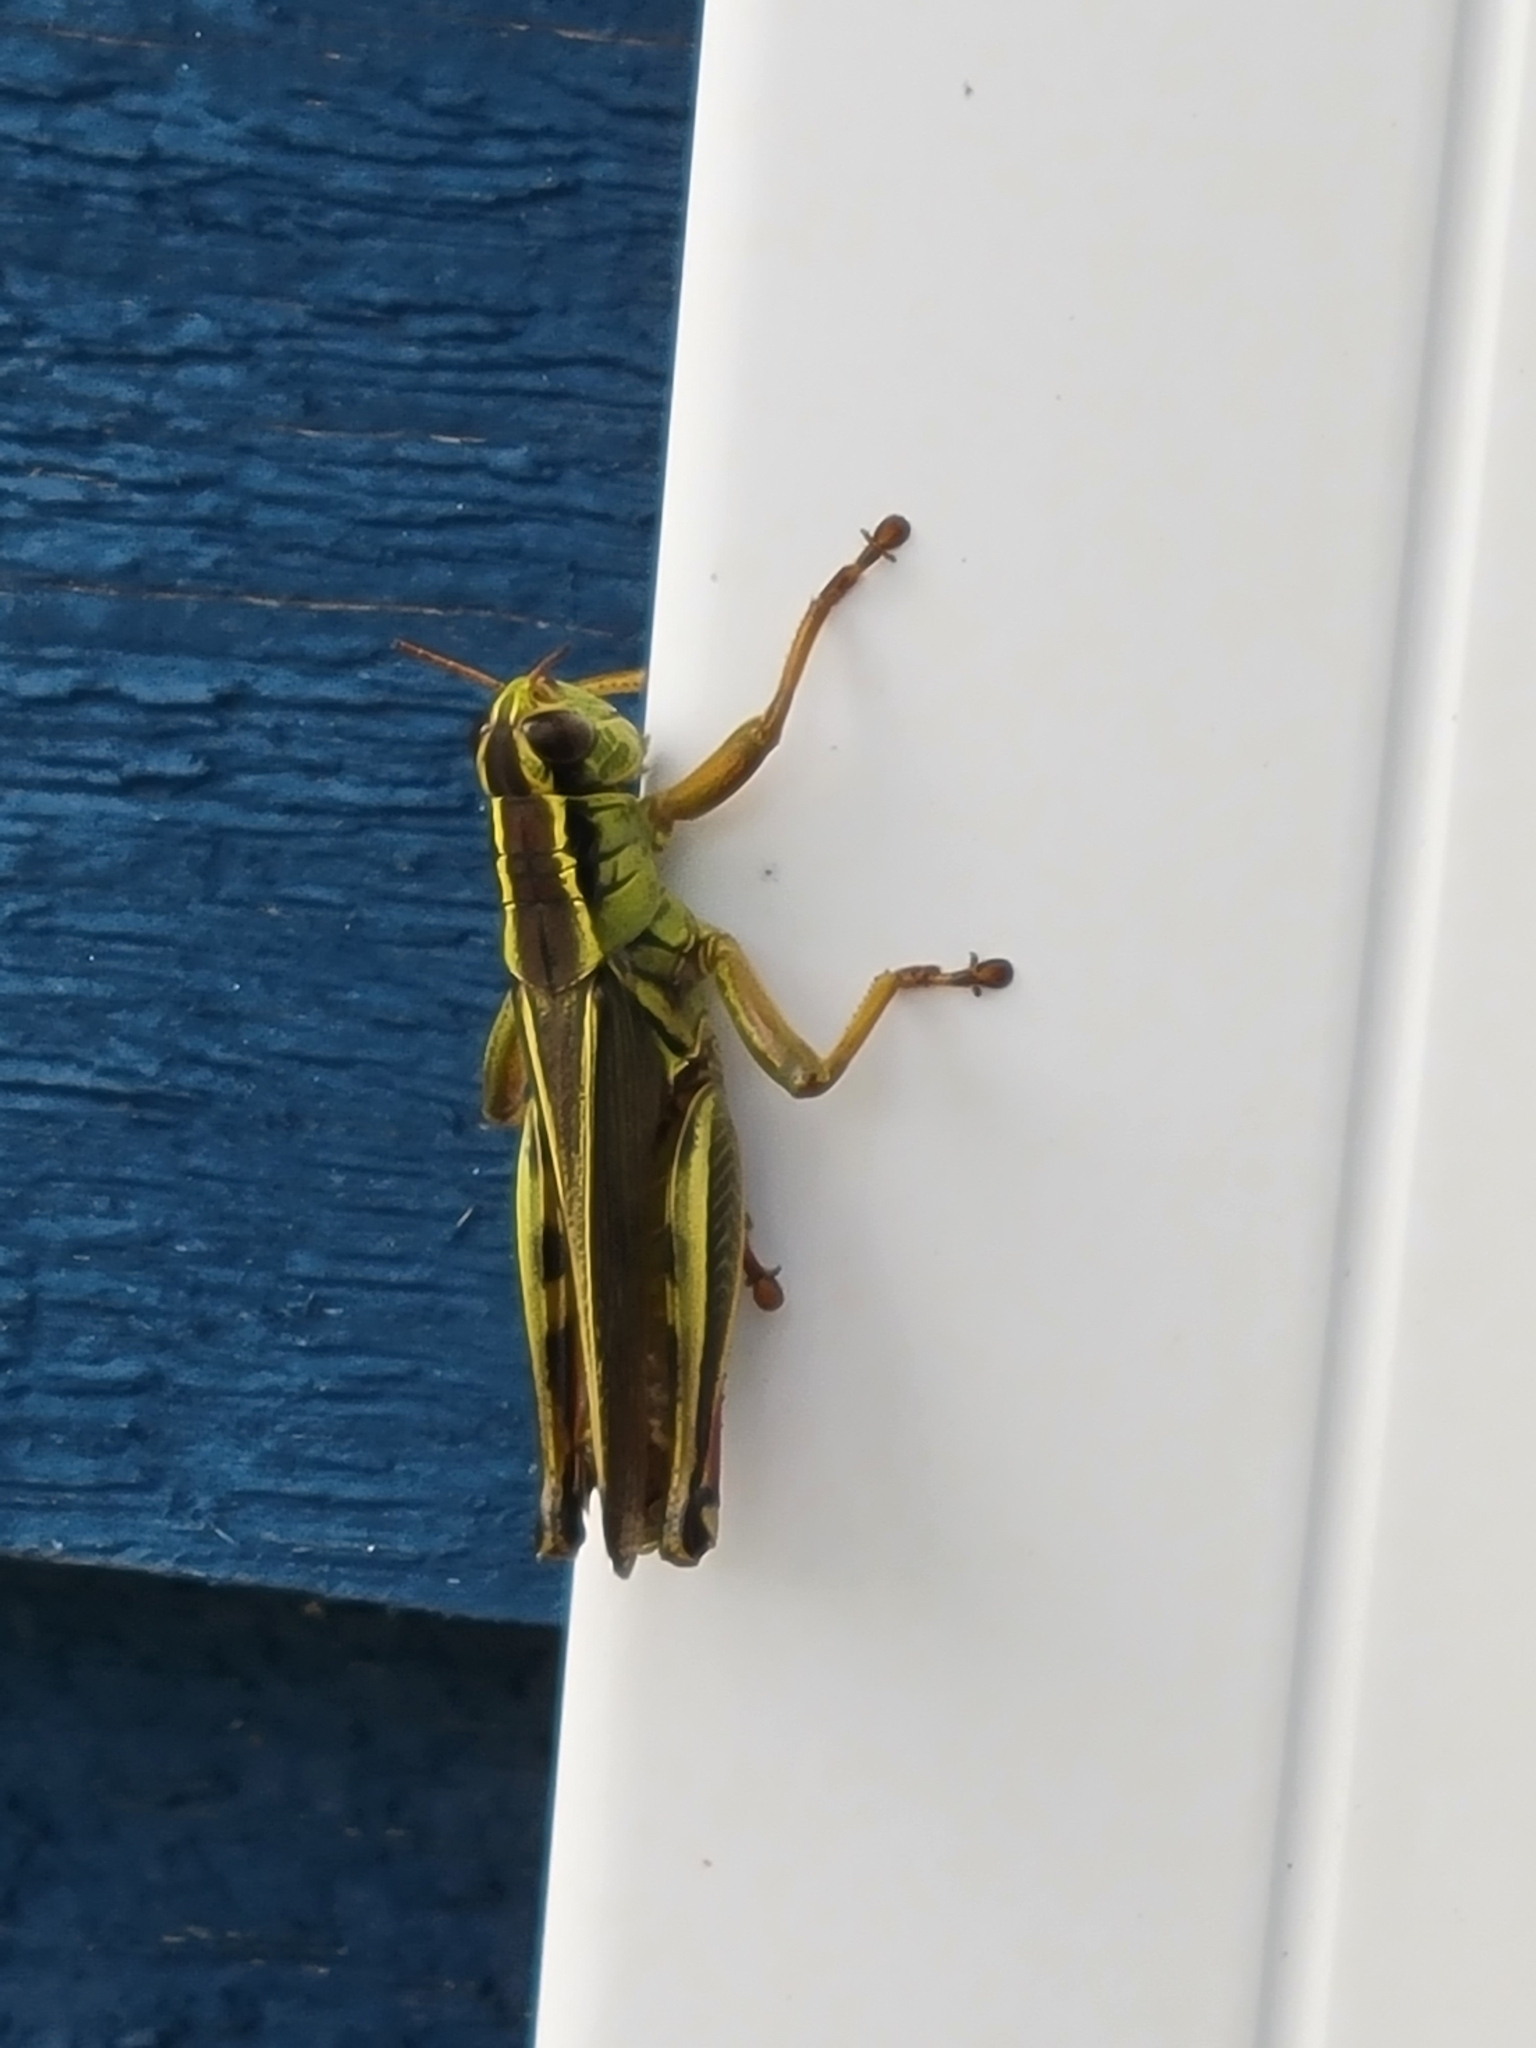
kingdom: Animalia
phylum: Arthropoda
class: Insecta
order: Orthoptera
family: Acrididae
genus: Melanoplus
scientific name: Melanoplus bivittatus
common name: Two-striped grasshopper
